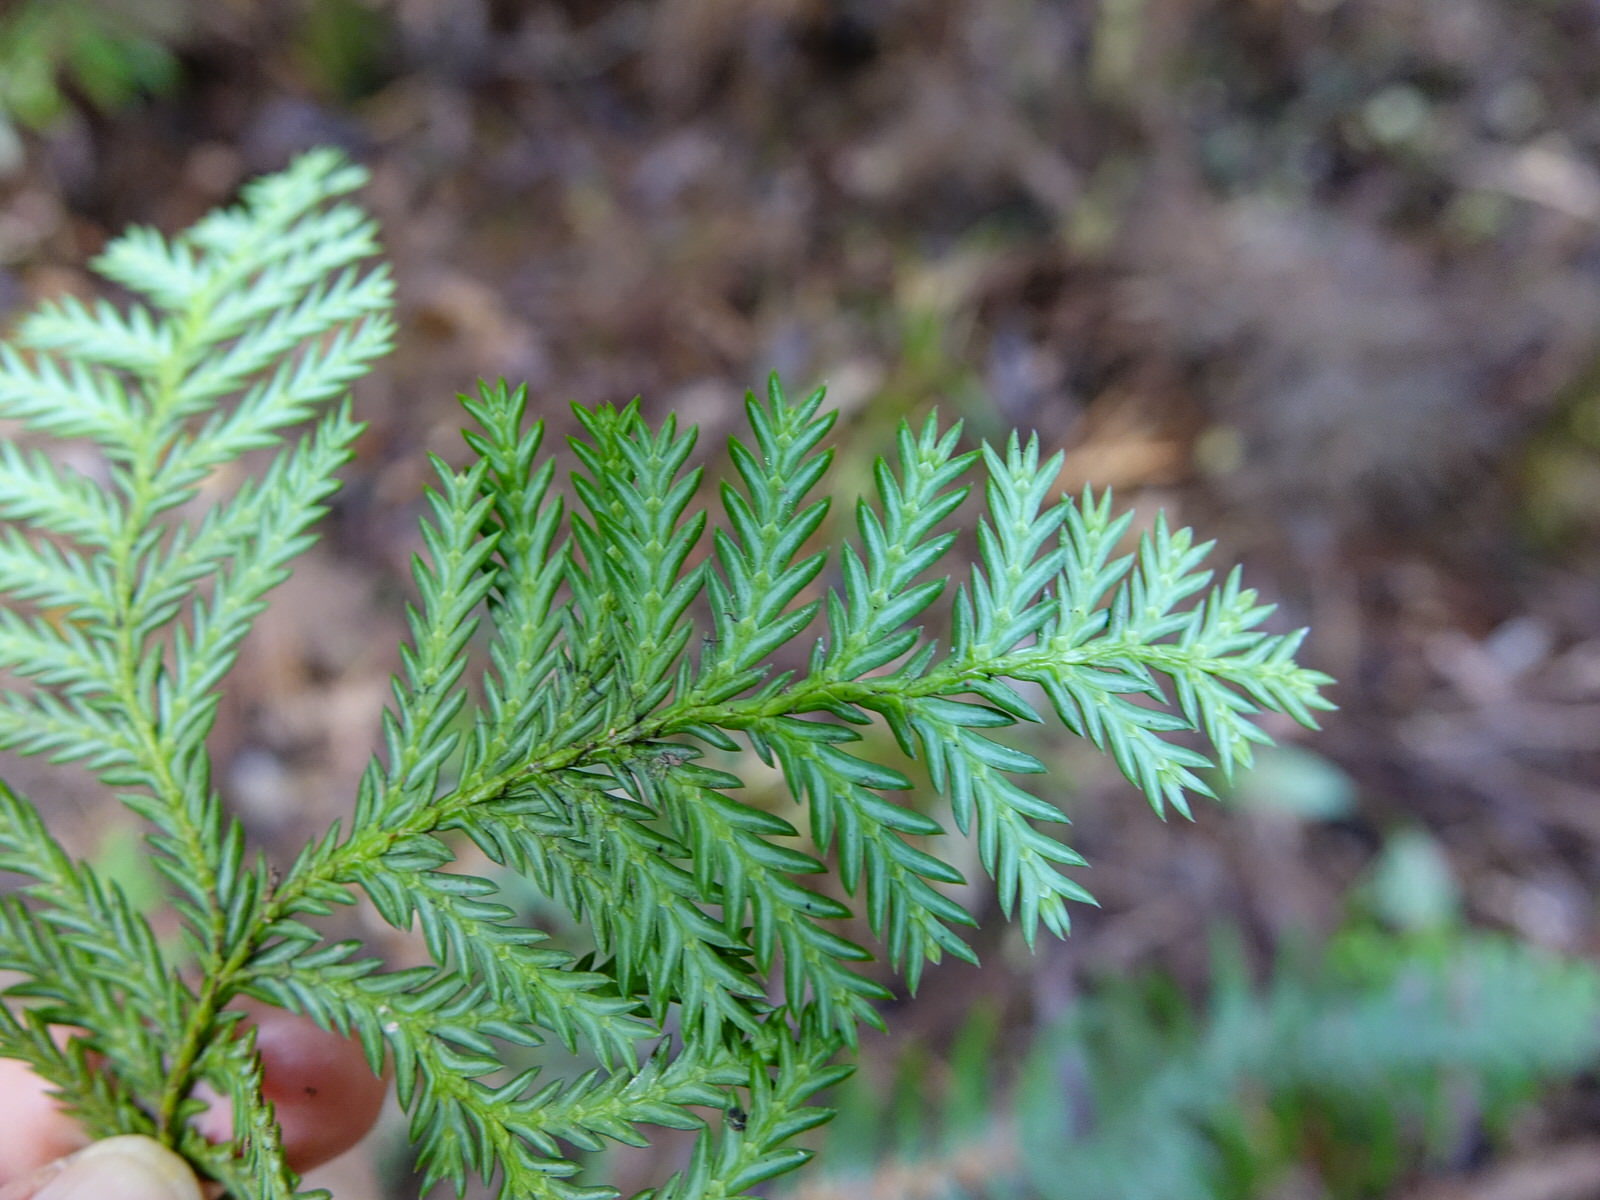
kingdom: Plantae
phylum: Tracheophyta
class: Pinopsida
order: Pinales
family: Cupressaceae
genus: Libocedrus
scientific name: Libocedrus plumosa
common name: New zealand cedar
